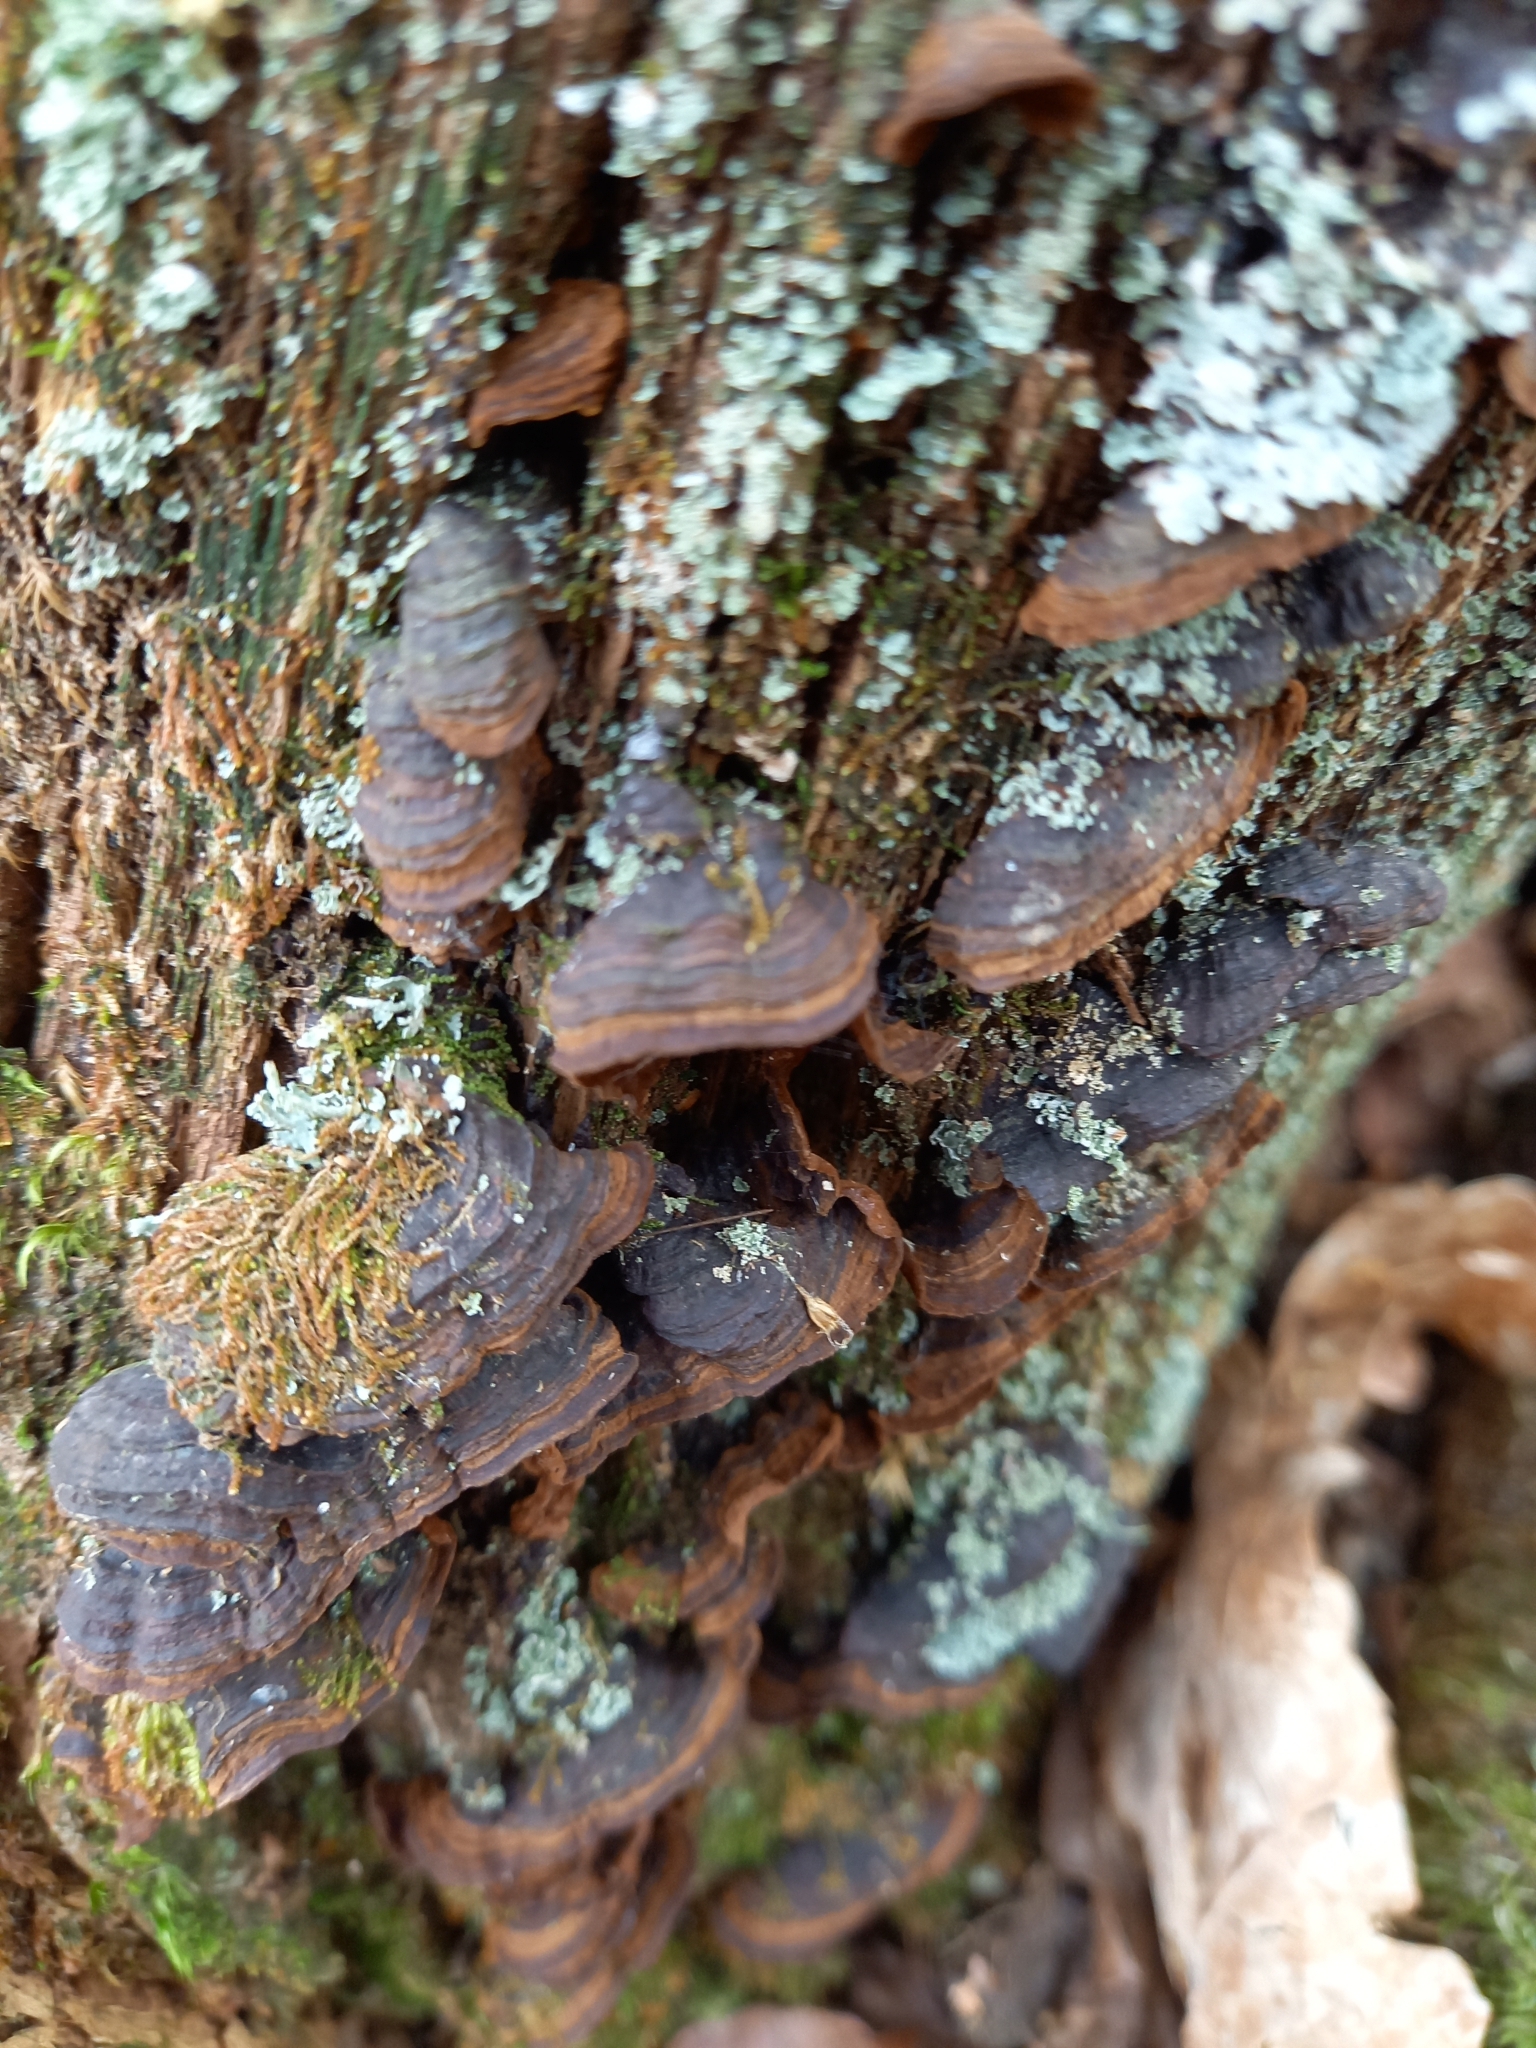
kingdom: Fungi
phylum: Basidiomycota
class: Agaricomycetes
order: Hymenochaetales
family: Hymenochaetaceae
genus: Hymenochaete
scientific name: Hymenochaete rubiginosa
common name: Oak curtain crust
